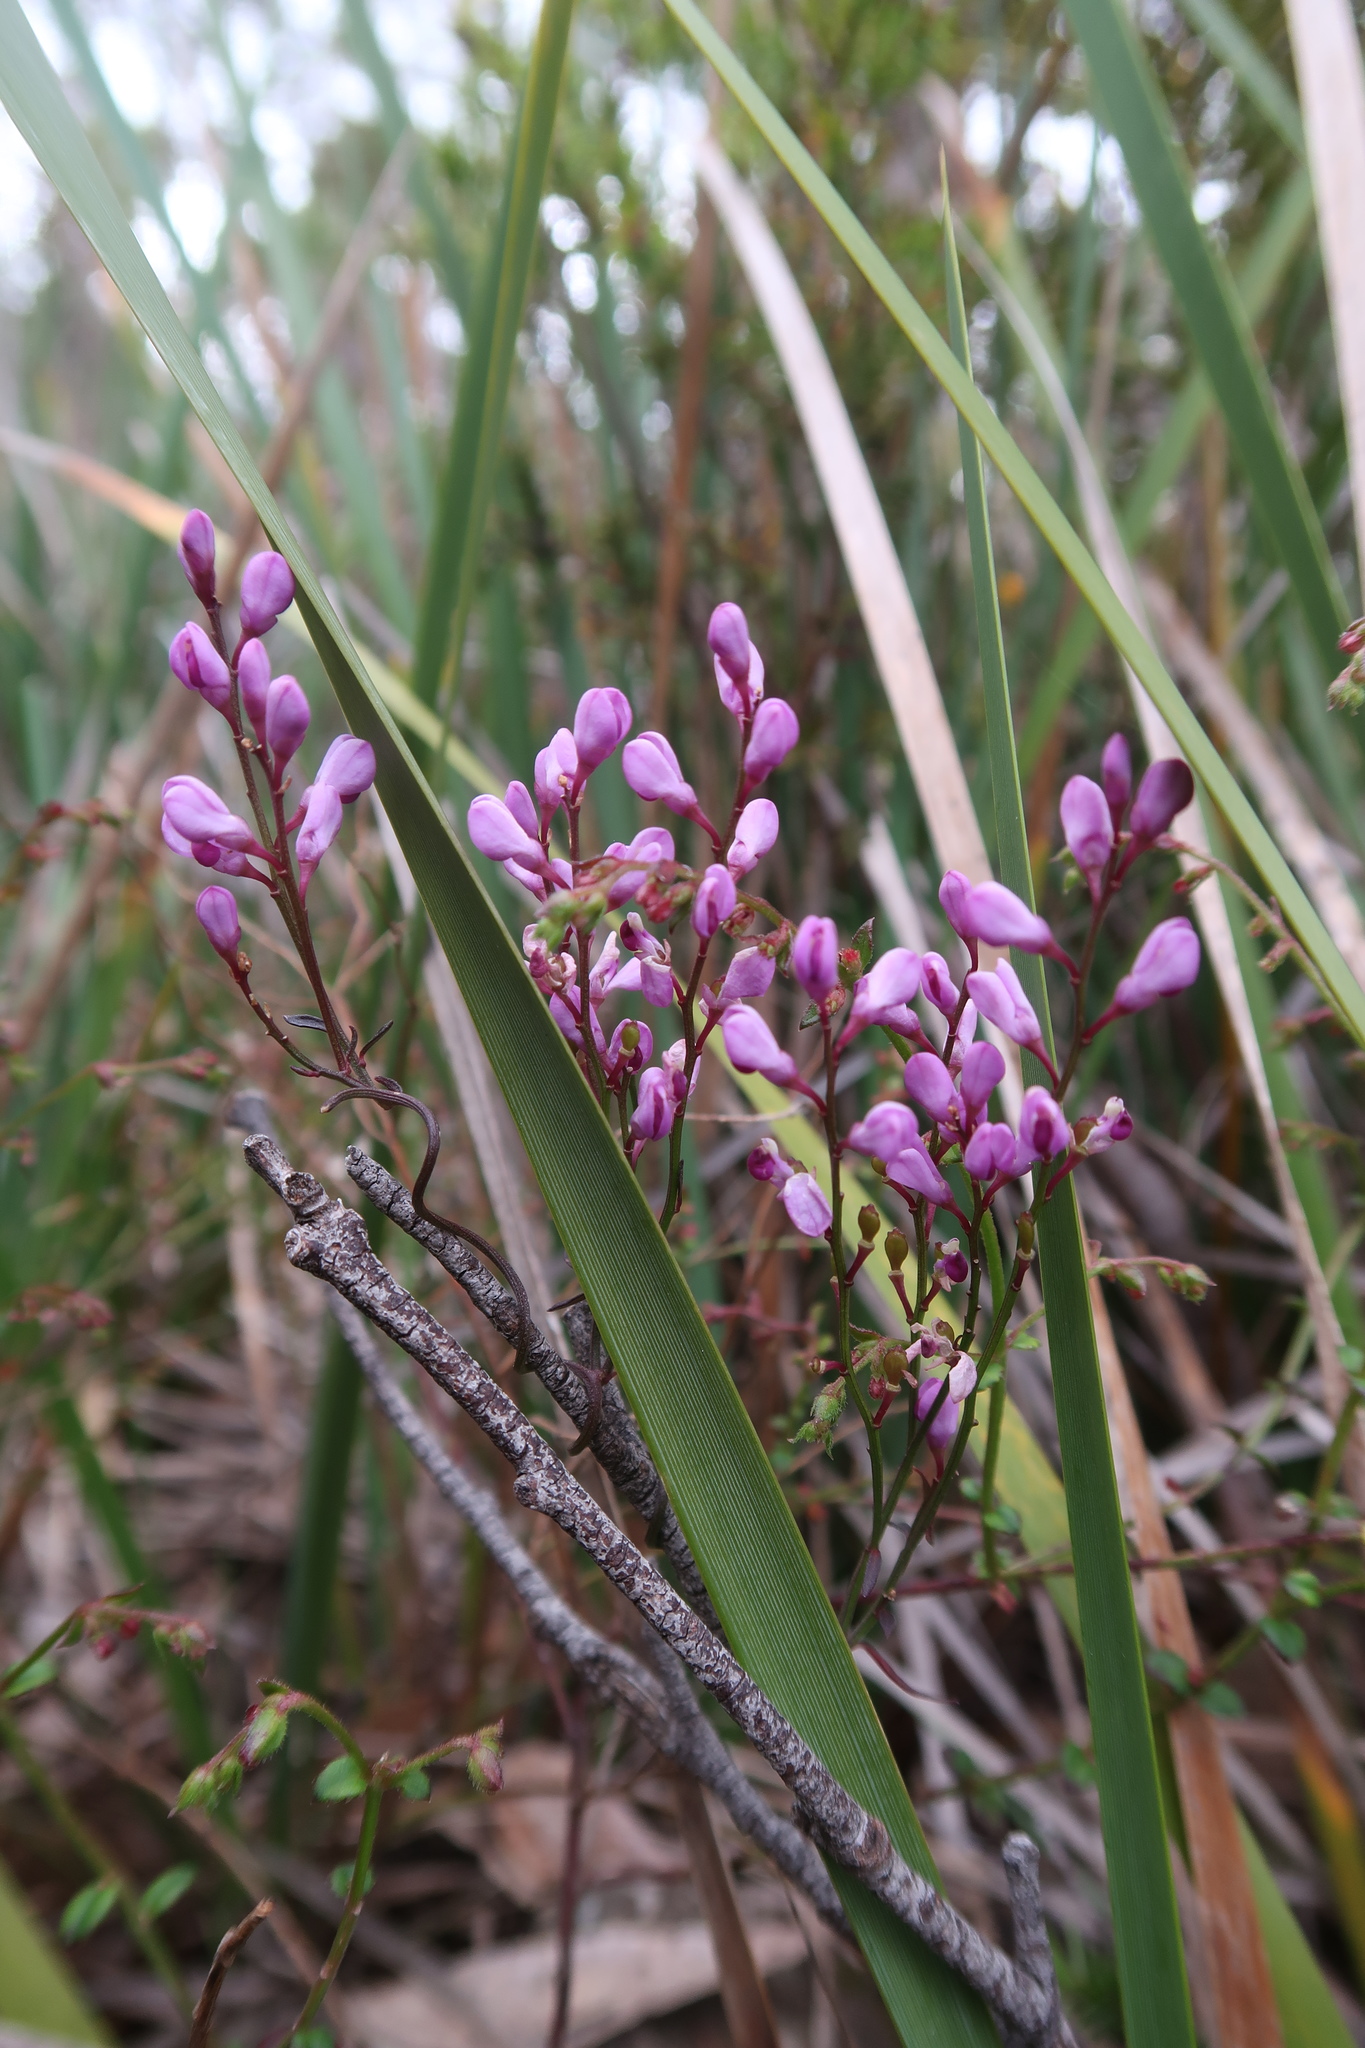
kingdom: Plantae
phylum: Tracheophyta
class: Magnoliopsida
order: Fabales
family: Polygalaceae
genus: Comesperma
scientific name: Comesperma volubile
